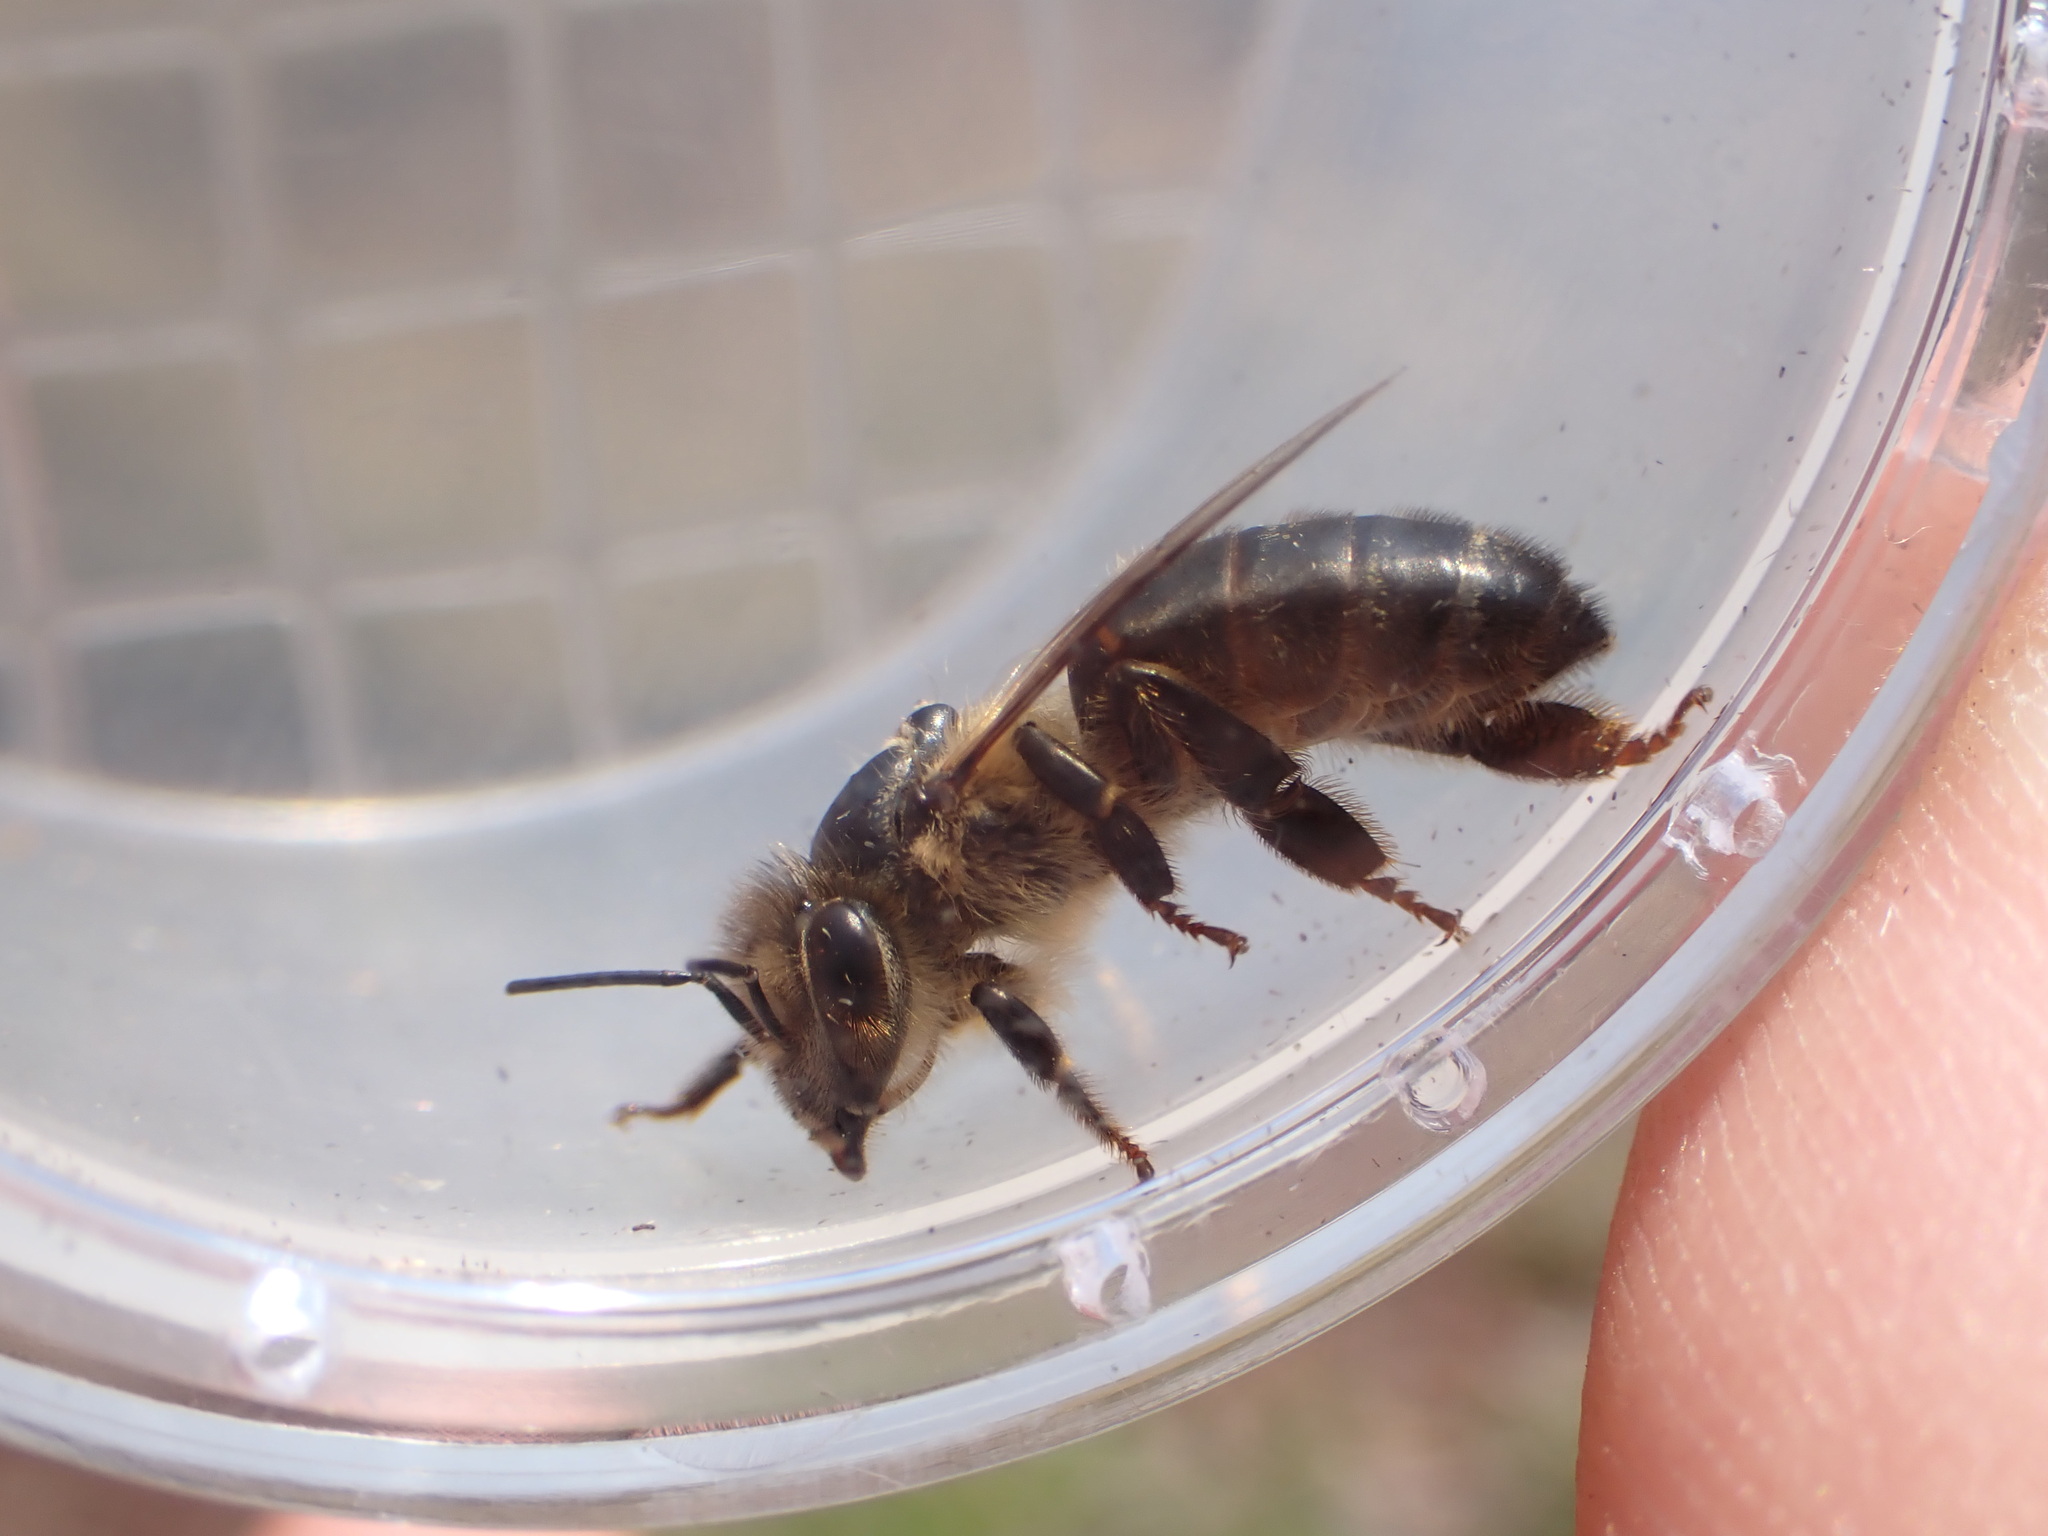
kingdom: Animalia
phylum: Arthropoda
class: Insecta
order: Hymenoptera
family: Apidae
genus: Apis
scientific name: Apis mellifera
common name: Honey bee
